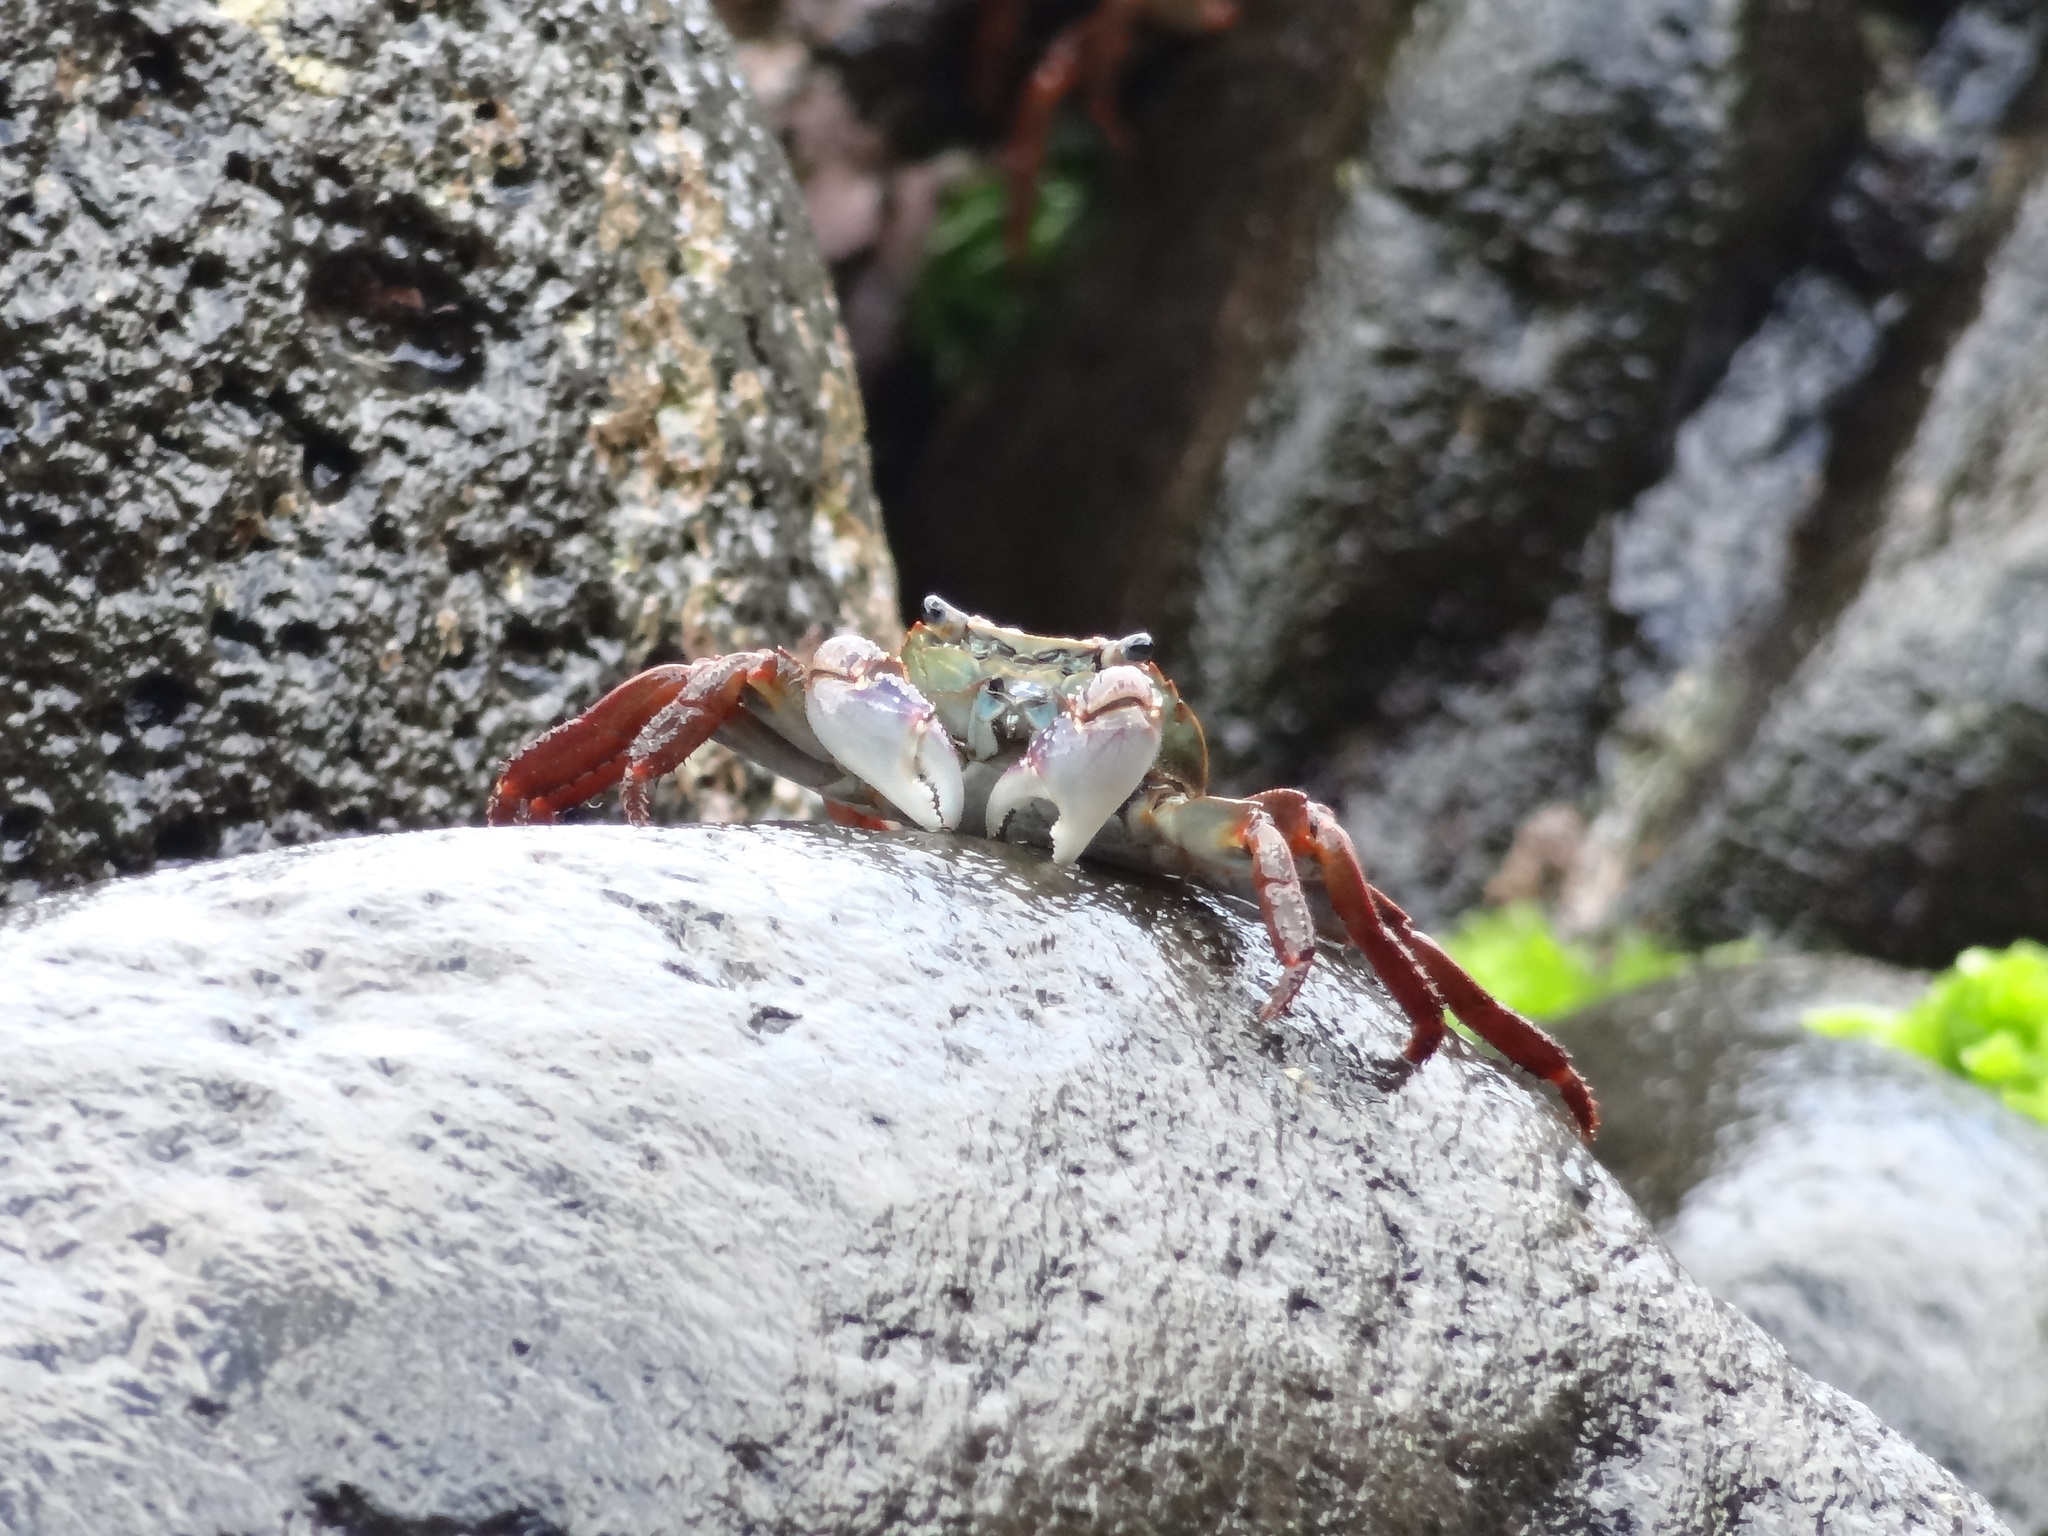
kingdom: Animalia
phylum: Arthropoda
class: Malacostraca
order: Decapoda
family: Grapsidae
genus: Leptograpsus
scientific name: Leptograpsus variegatus
